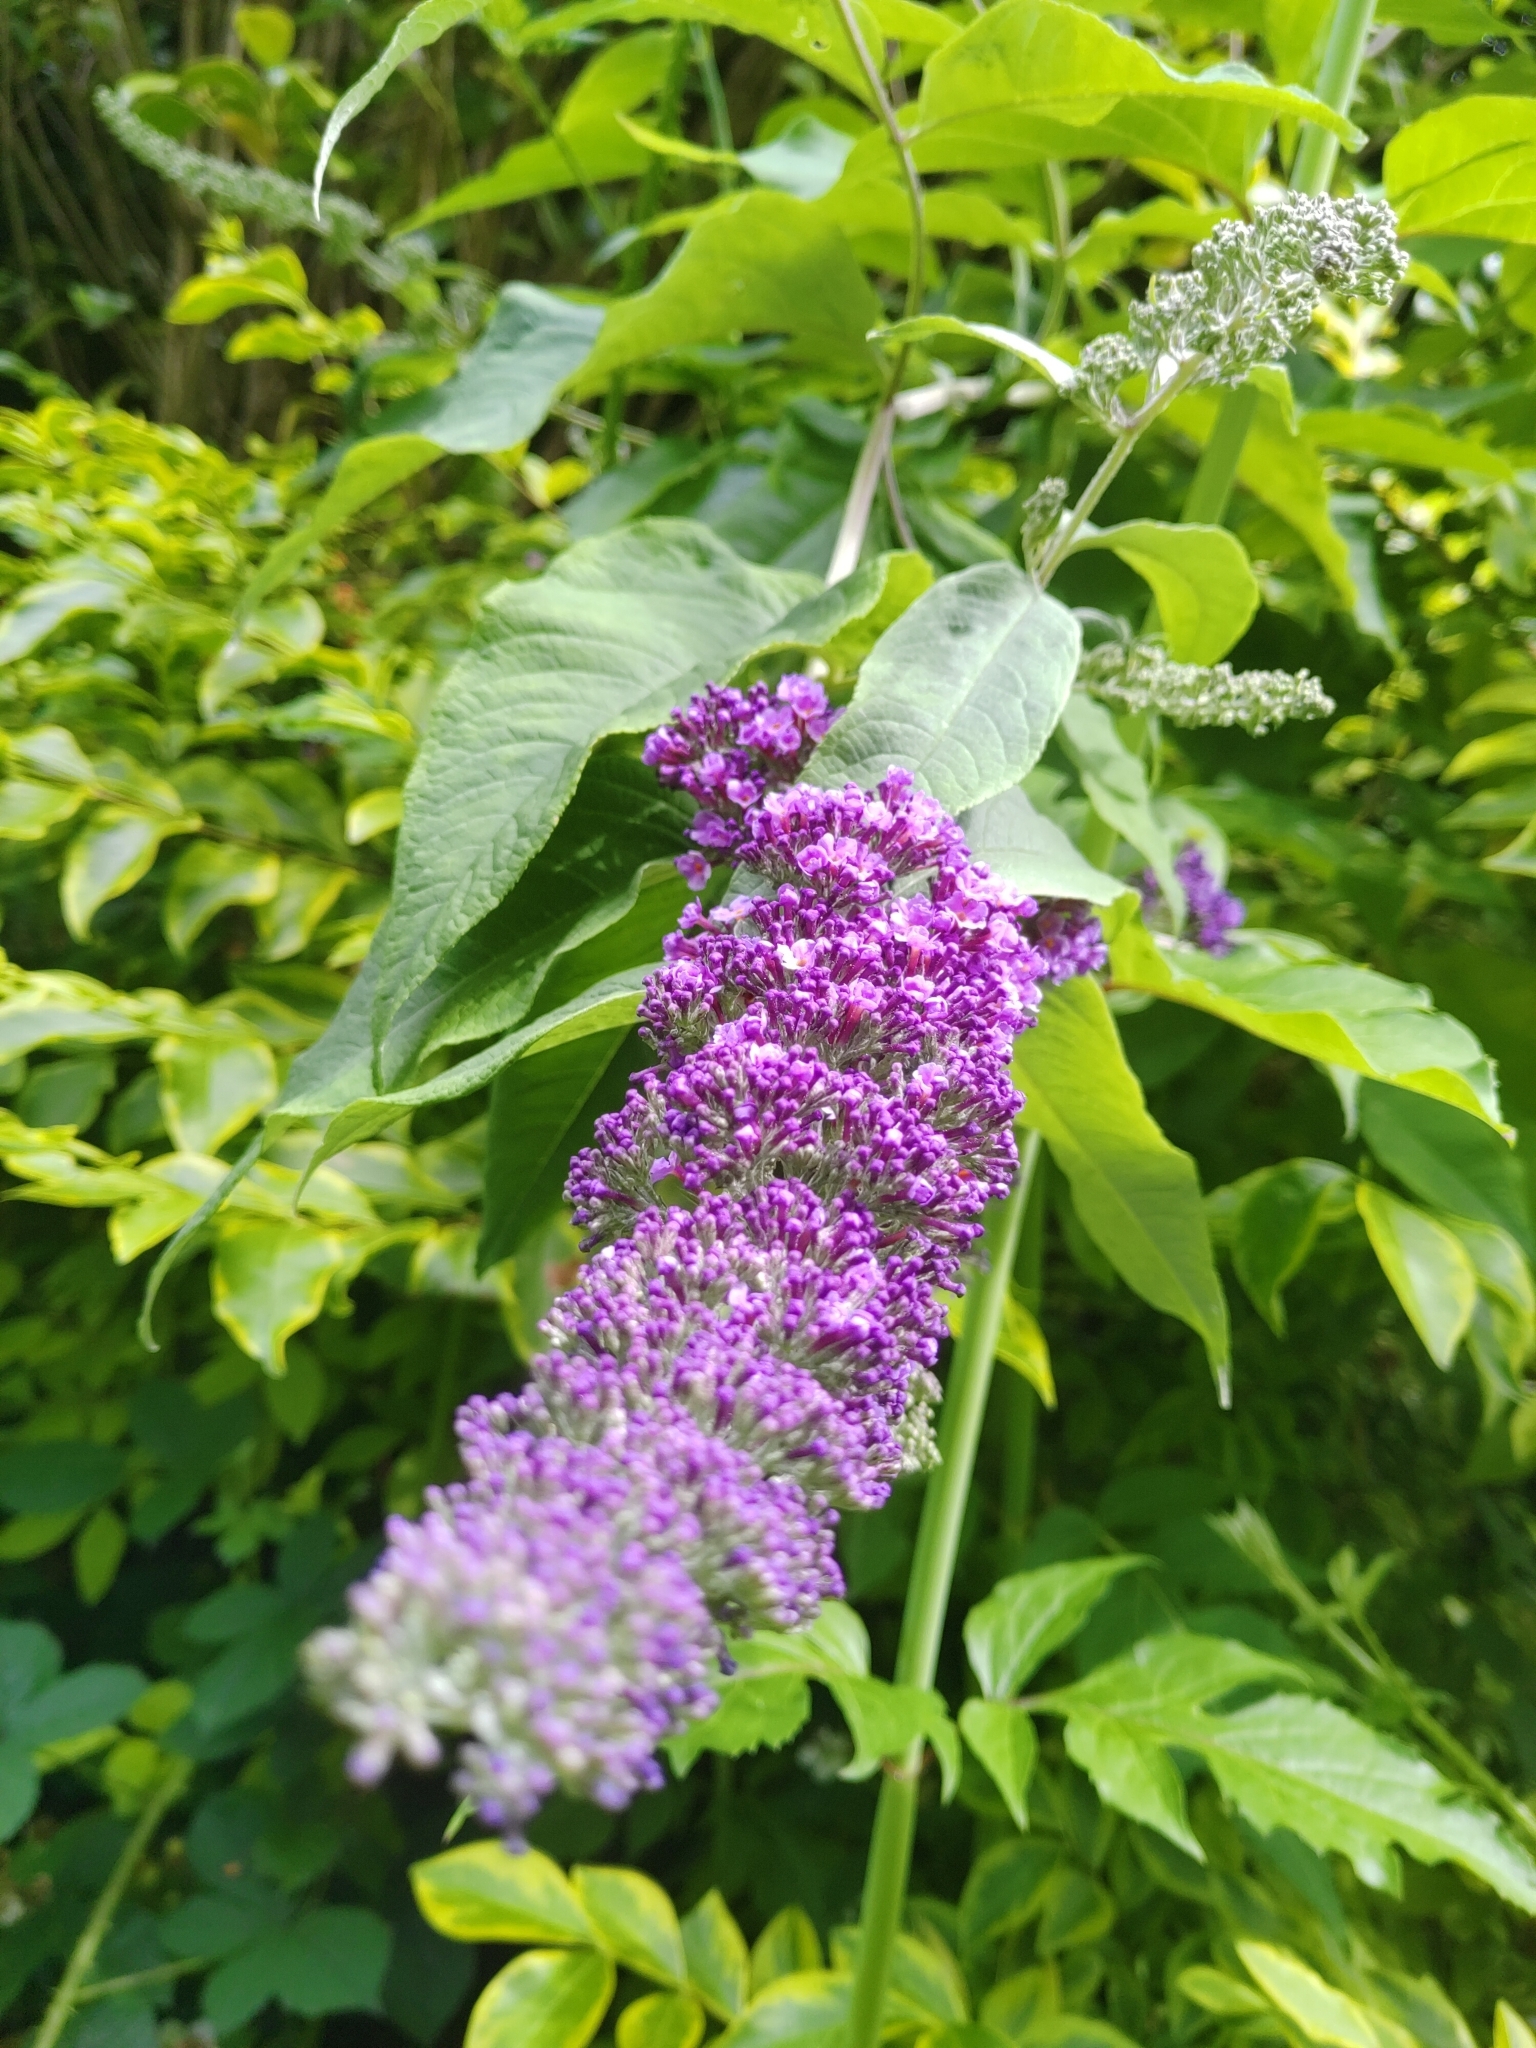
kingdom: Plantae
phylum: Tracheophyta
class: Magnoliopsida
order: Lamiales
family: Scrophulariaceae
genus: Buddleja
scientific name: Buddleja davidii
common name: Butterfly-bush
